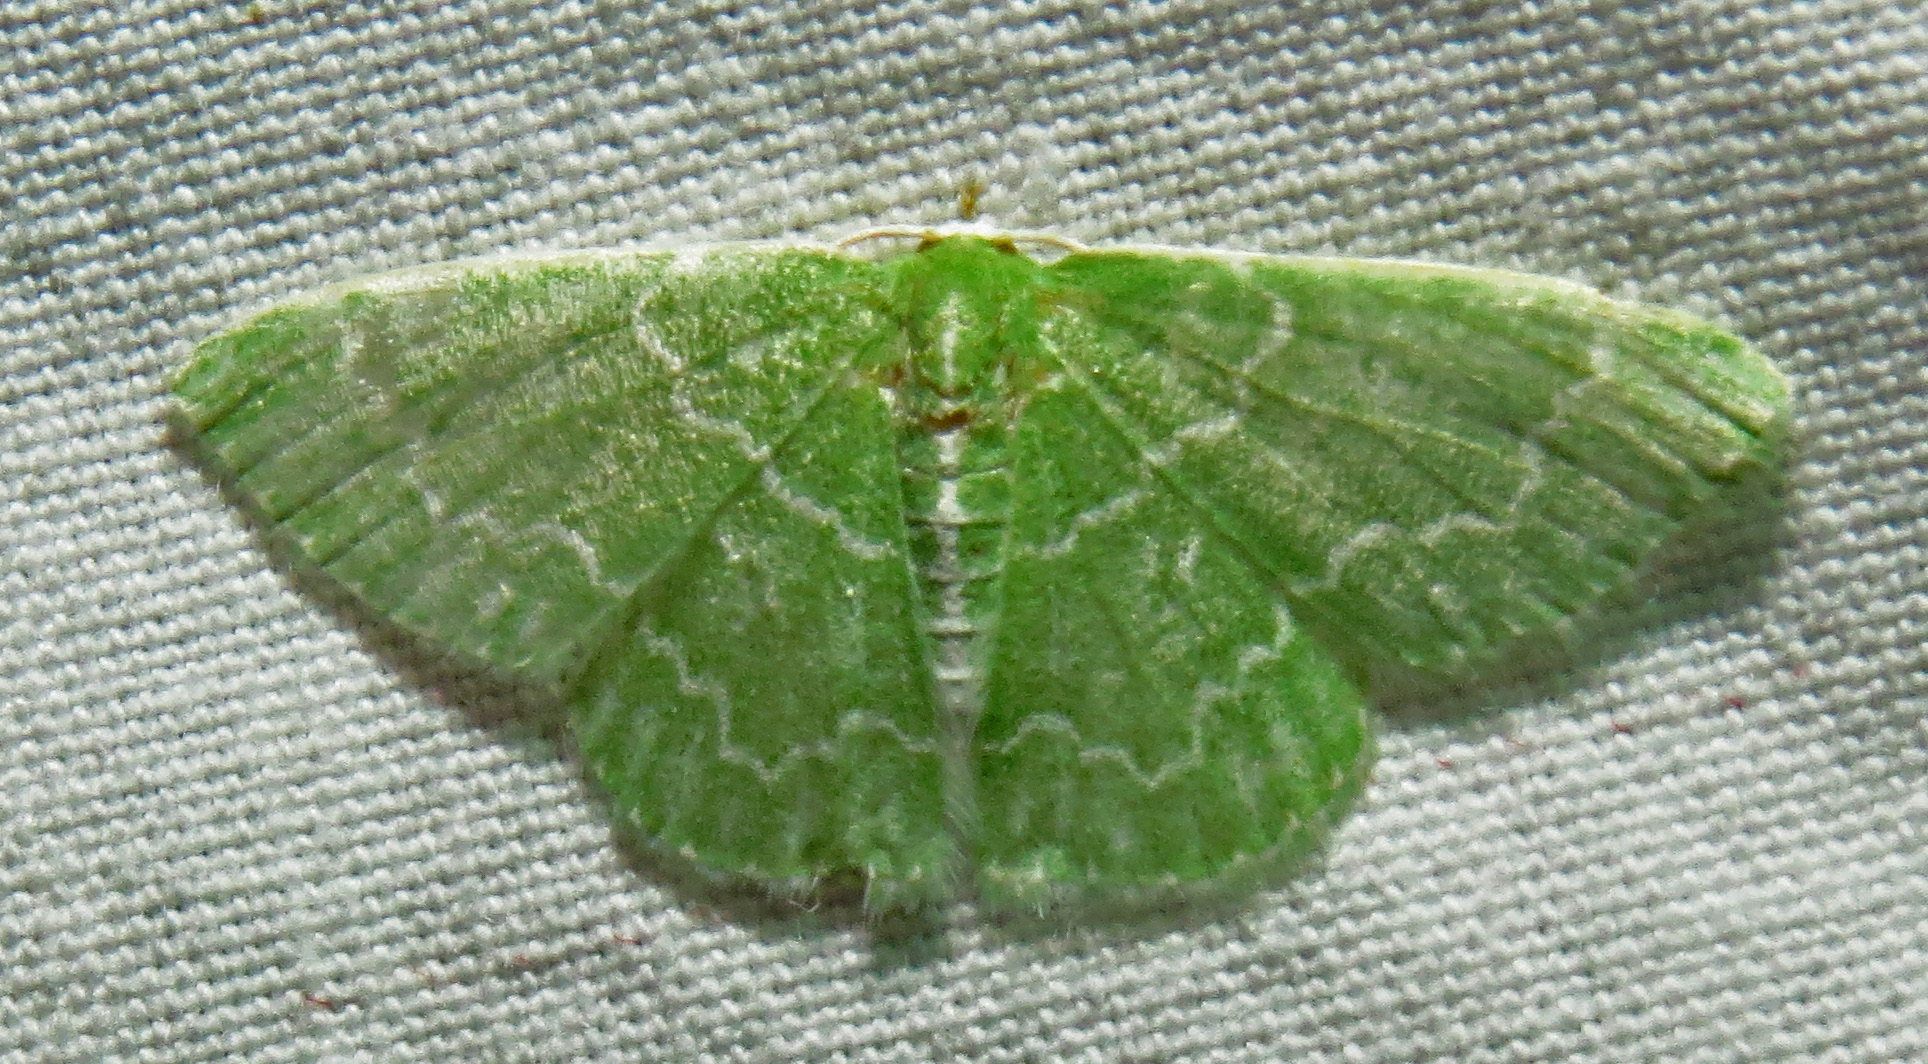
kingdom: Animalia
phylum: Arthropoda
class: Insecta
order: Lepidoptera
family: Geometridae
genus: Synchlora
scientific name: Synchlora frondaria
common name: Southern emerald
